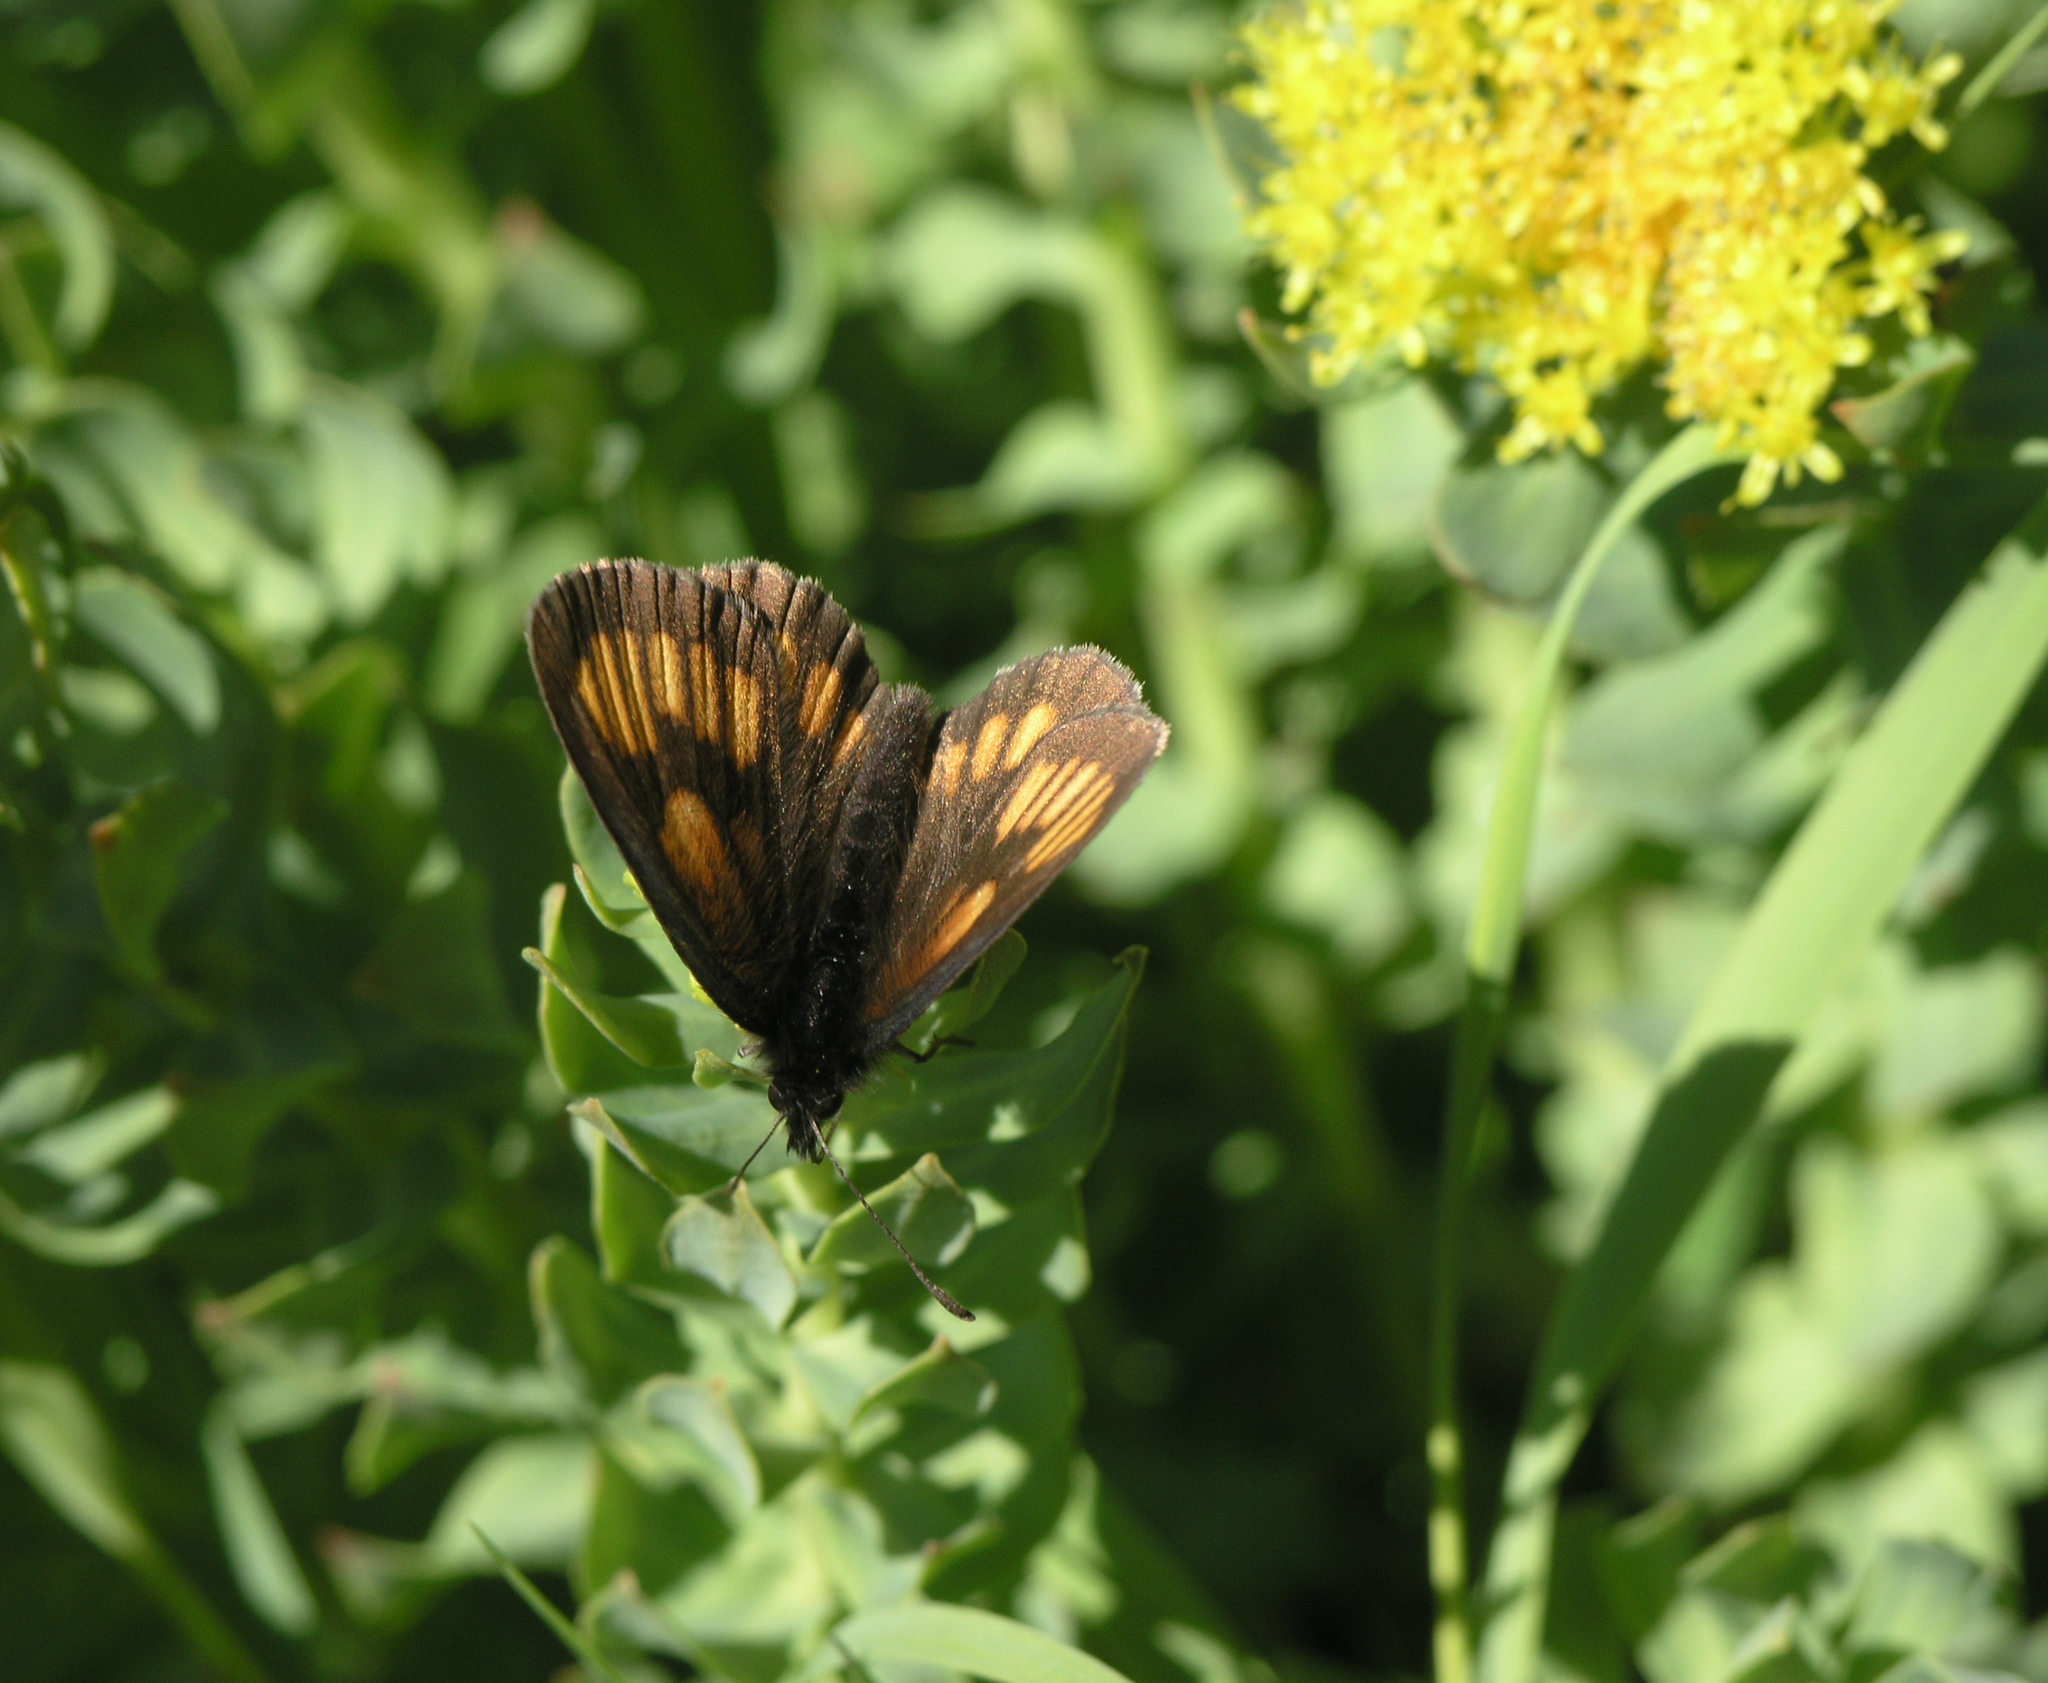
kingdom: Animalia
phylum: Arthropoda
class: Insecta
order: Lepidoptera
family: Nymphalidae
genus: Erebia
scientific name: Erebia maurisius
